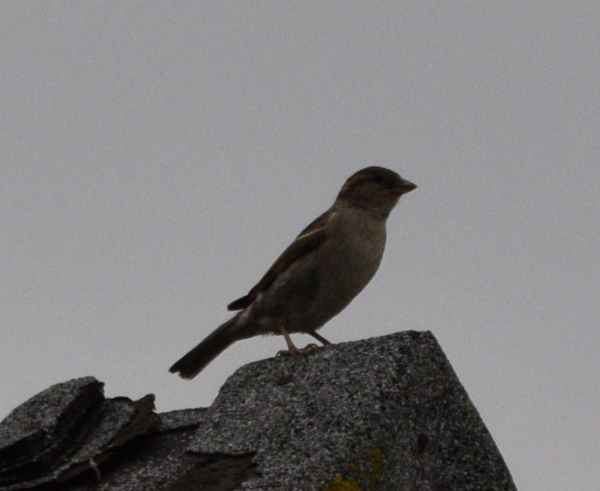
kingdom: Animalia
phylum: Chordata
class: Aves
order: Passeriformes
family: Passeridae
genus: Passer
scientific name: Passer domesticus
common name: House sparrow
